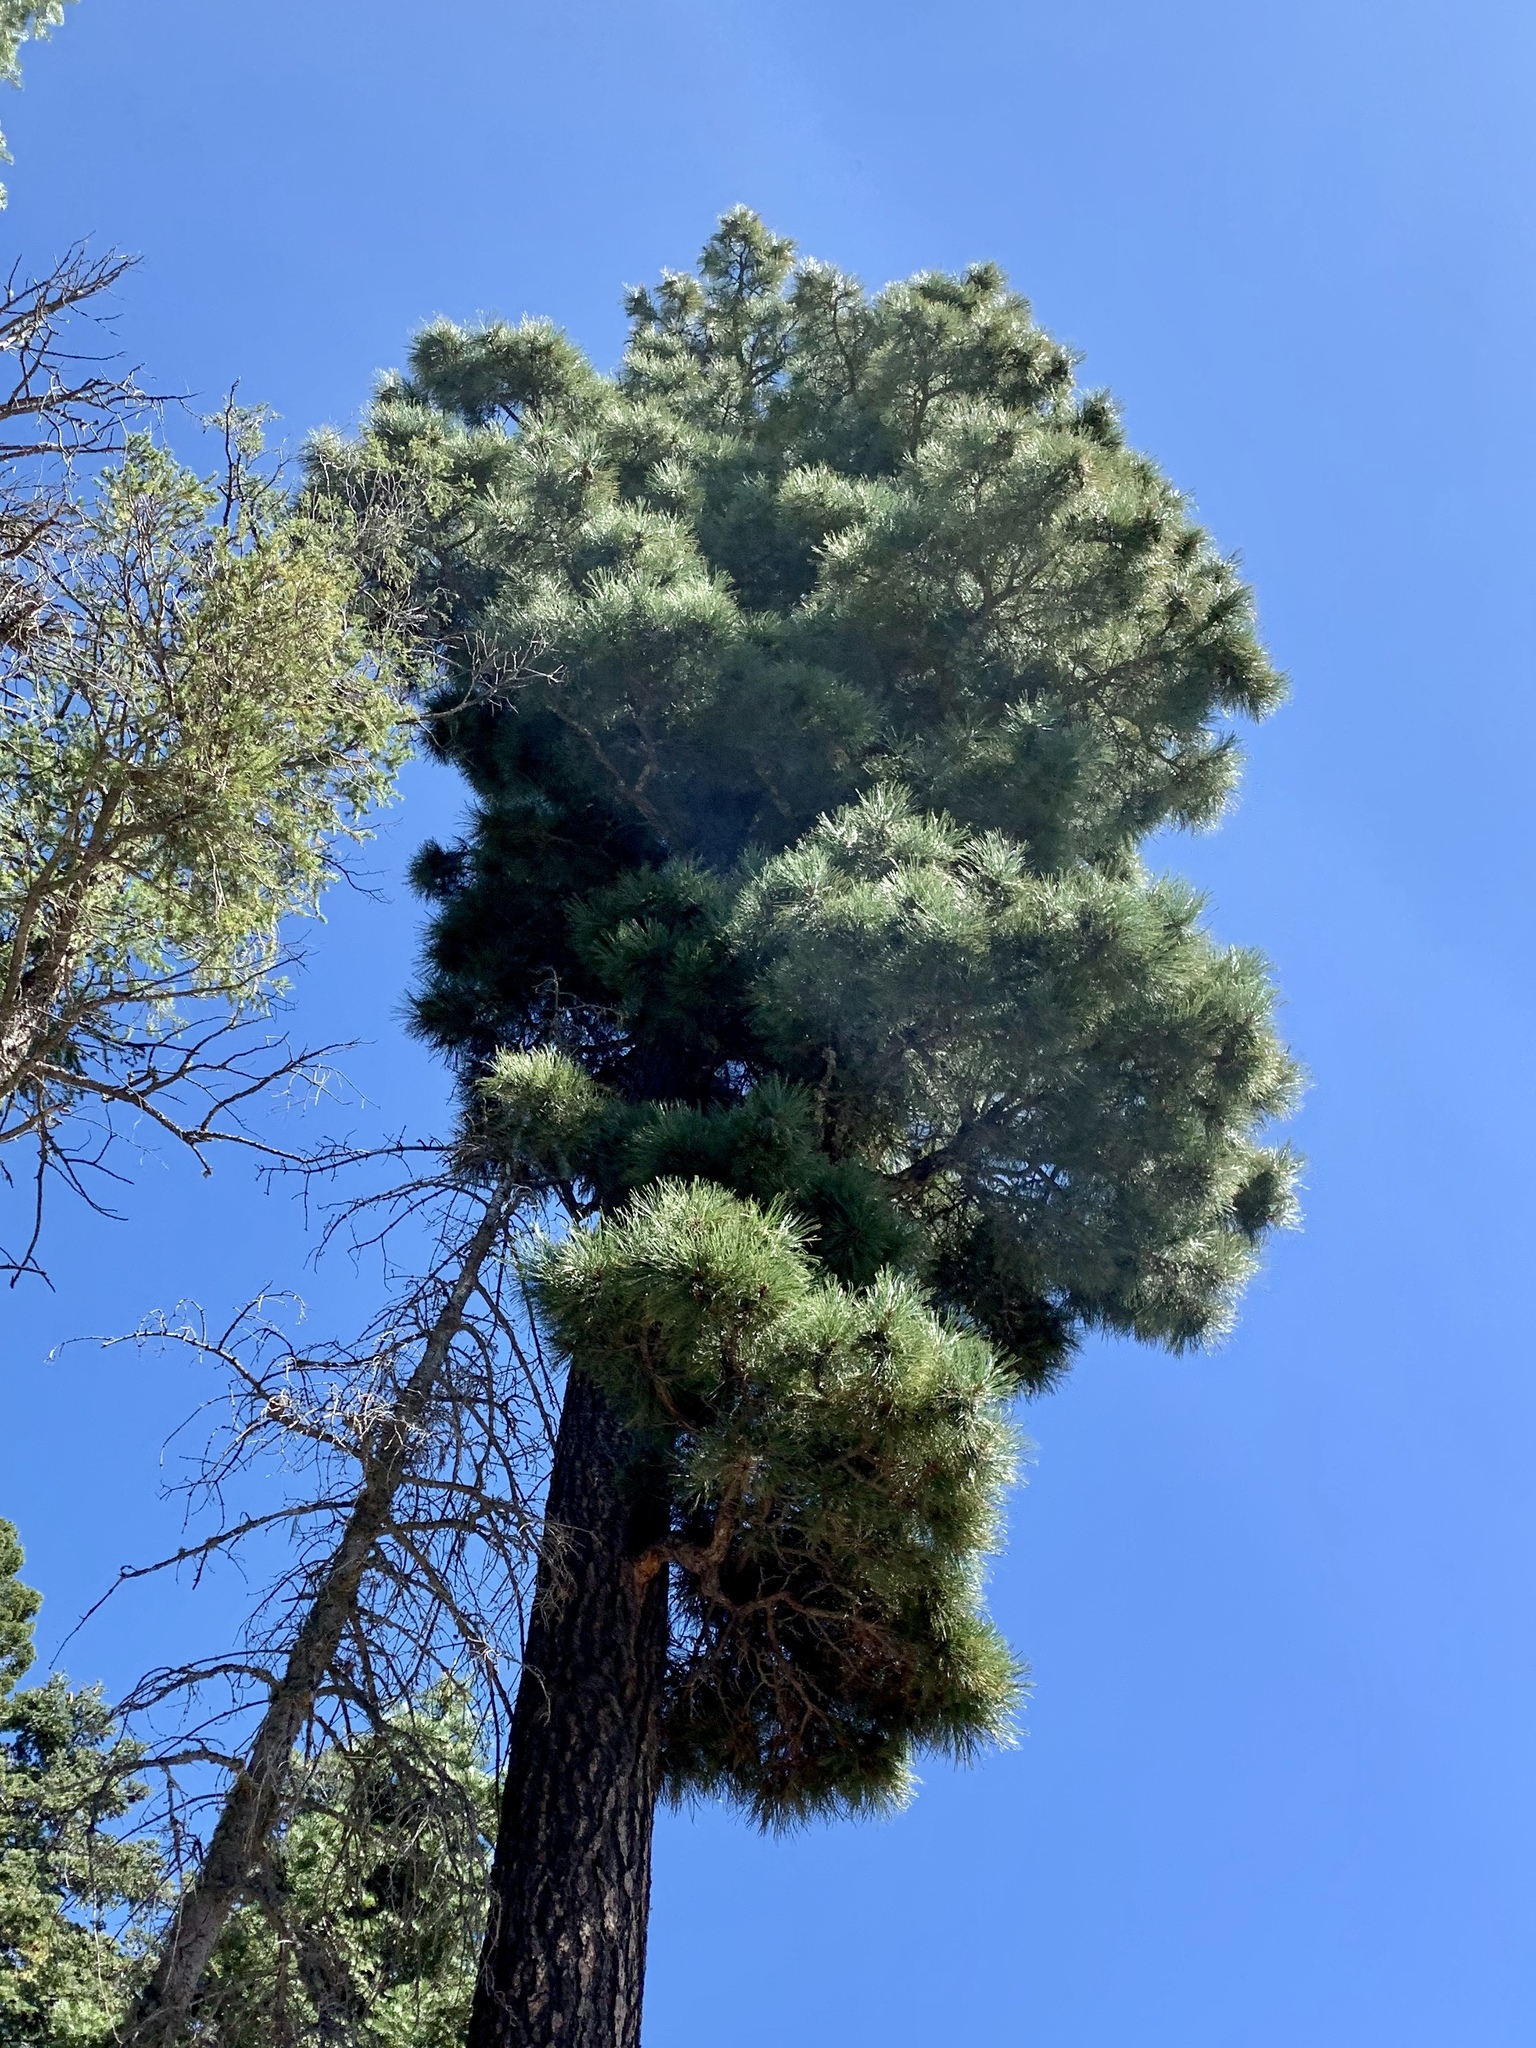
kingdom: Plantae
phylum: Tracheophyta
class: Pinopsida
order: Pinales
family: Pinaceae
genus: Pinus
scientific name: Pinus ponderosa
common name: Western yellow-pine
